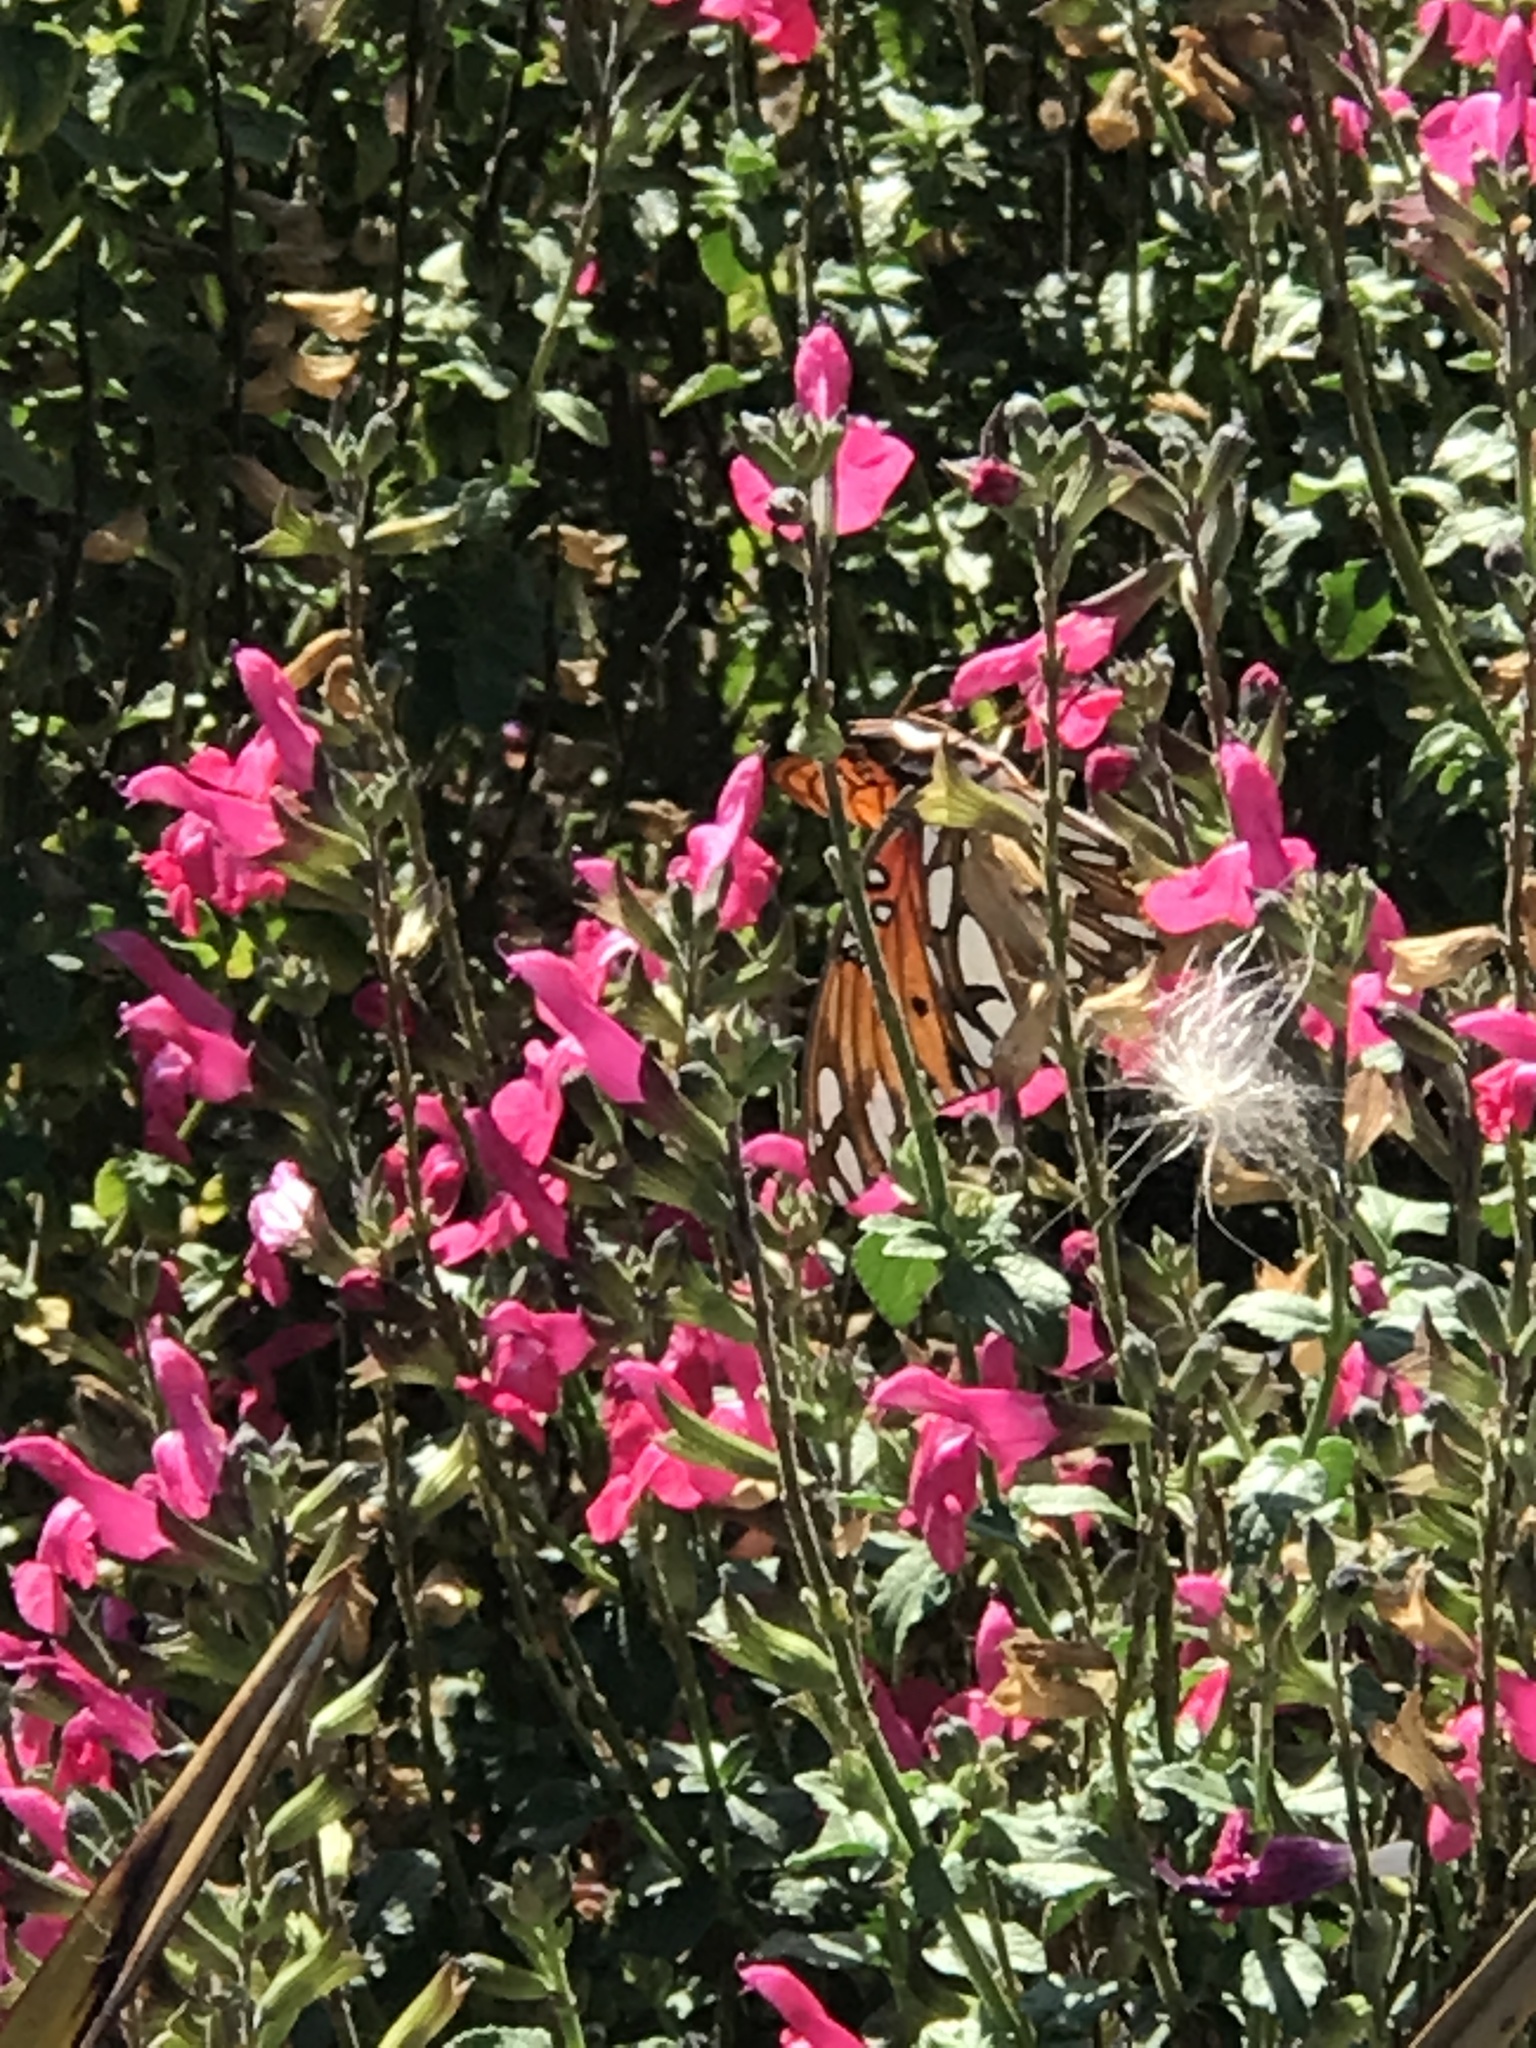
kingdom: Animalia
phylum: Arthropoda
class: Insecta
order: Lepidoptera
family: Nymphalidae
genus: Dione
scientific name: Dione vanillae
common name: Gulf fritillary
